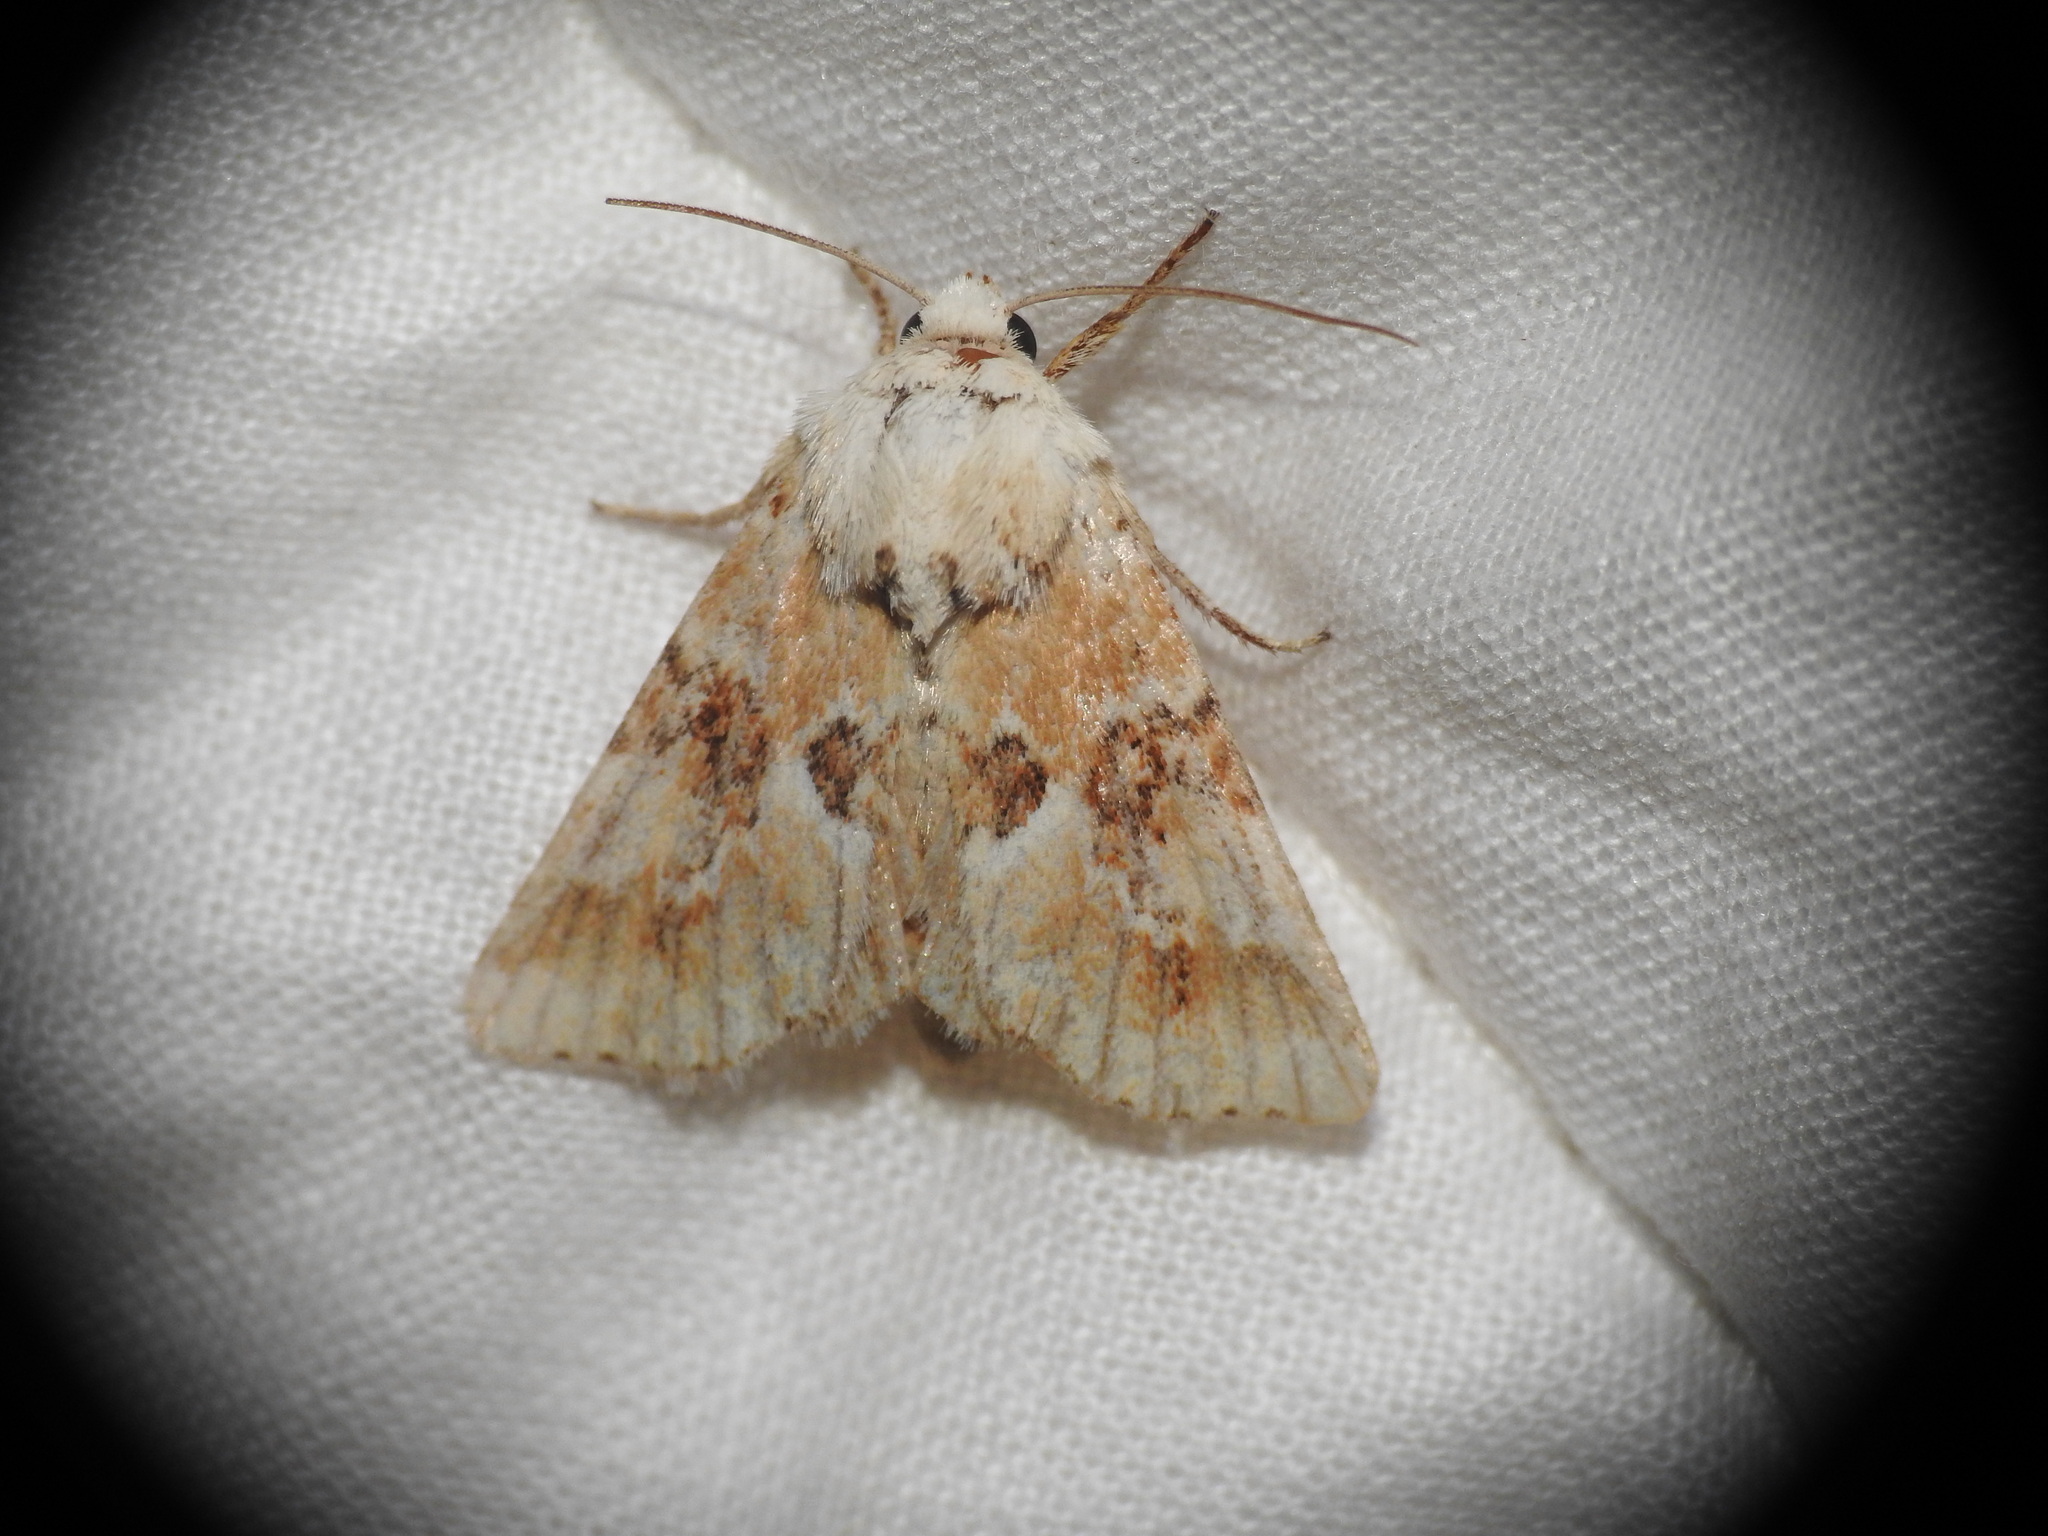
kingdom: Animalia
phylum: Arthropoda
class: Insecta
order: Lepidoptera
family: Noctuidae
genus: Eremobia
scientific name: Eremobia ochroleuca
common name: Dusky sallow
